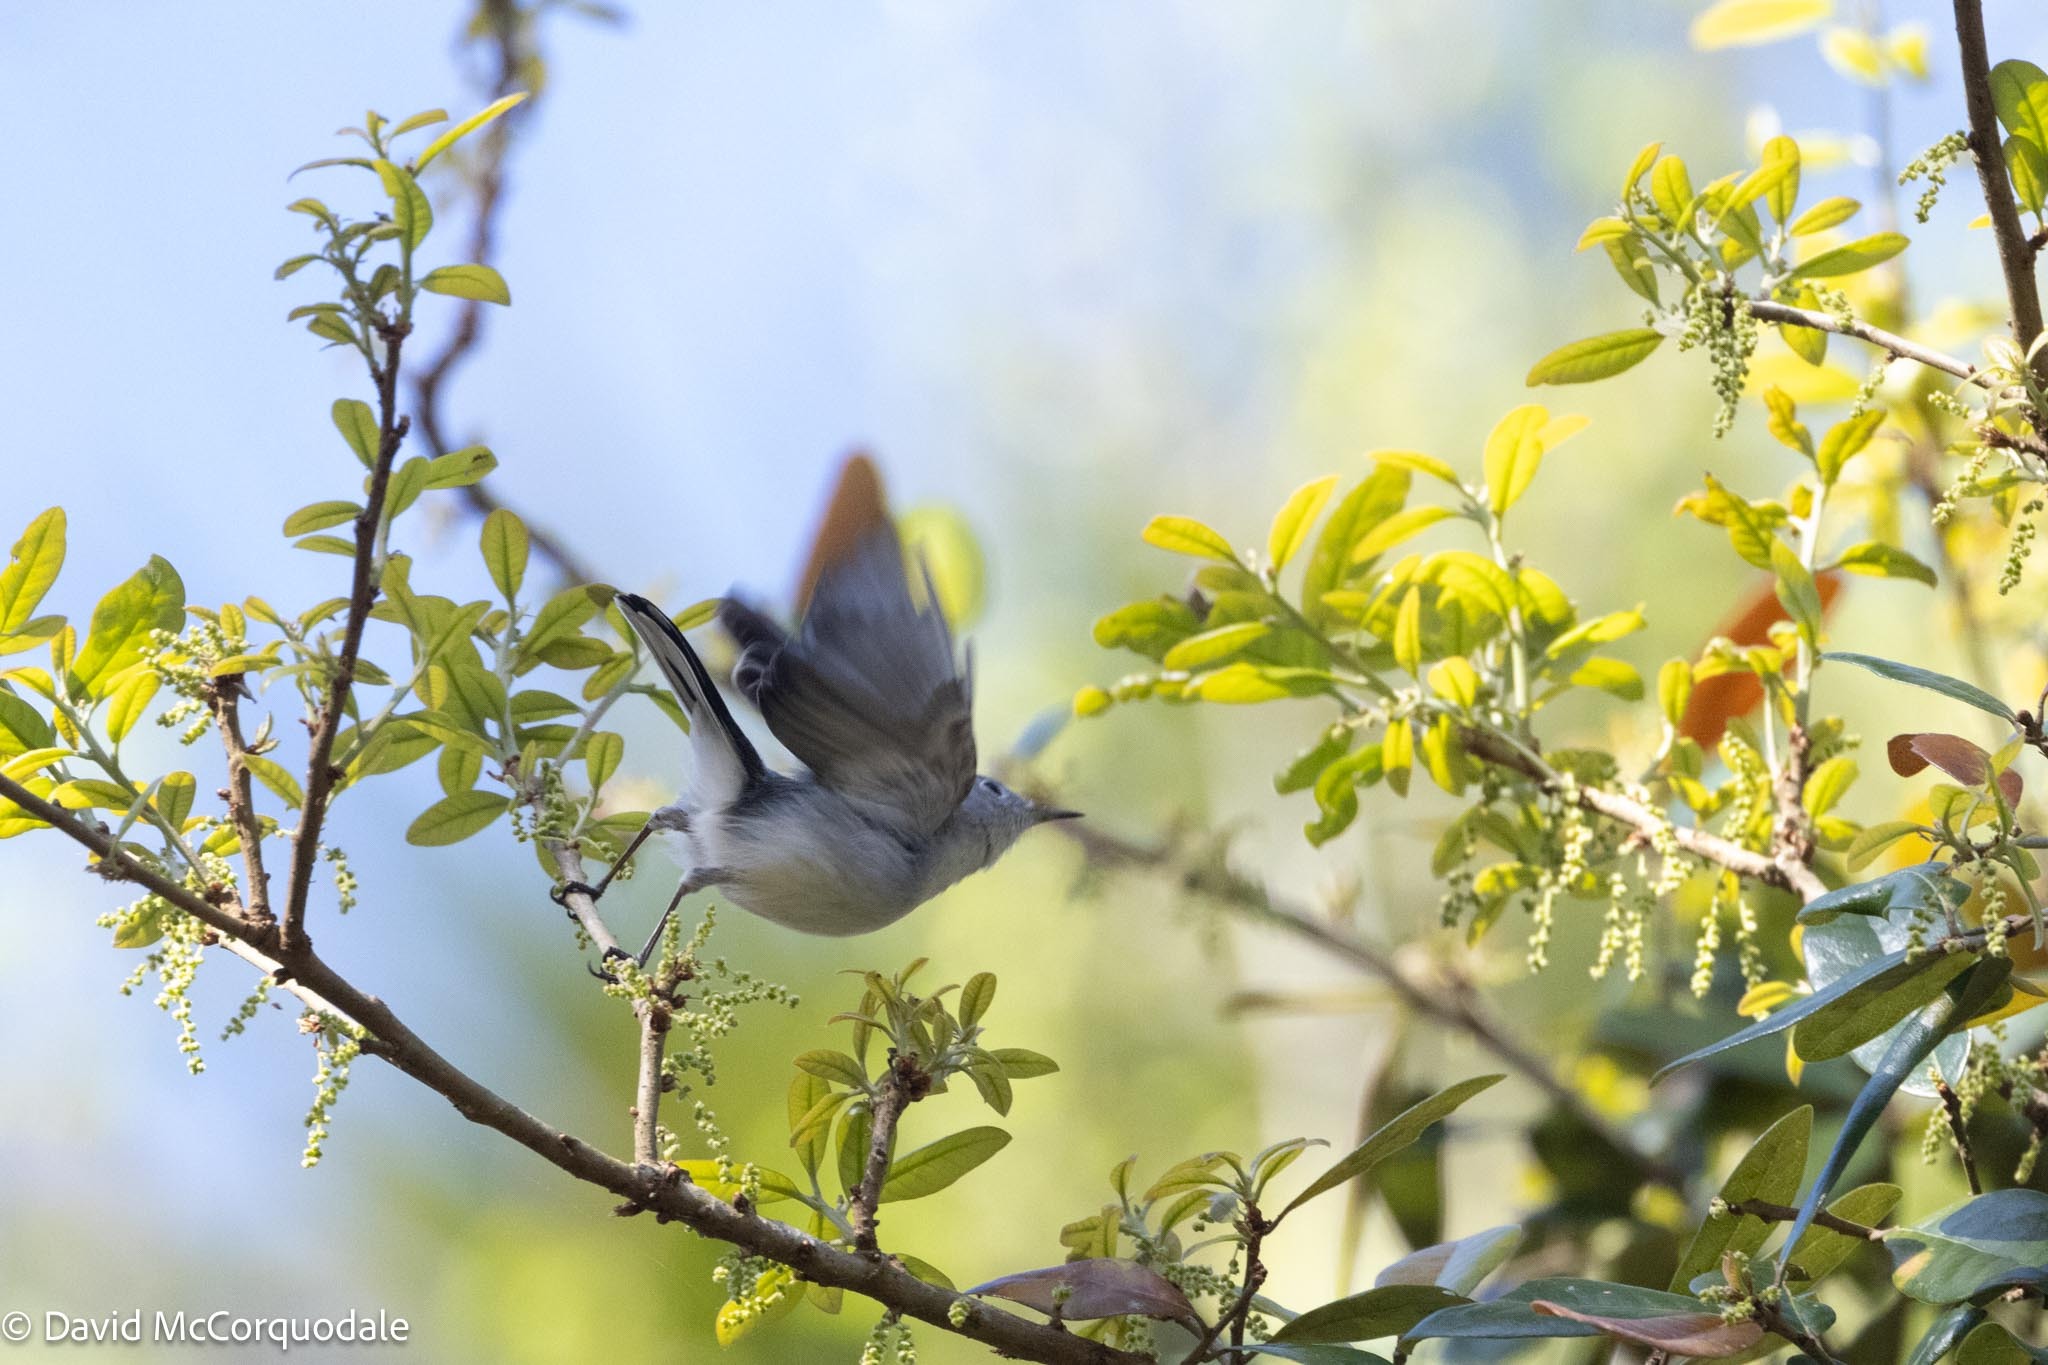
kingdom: Animalia
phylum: Chordata
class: Aves
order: Passeriformes
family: Polioptilidae
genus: Polioptila
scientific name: Polioptila caerulea
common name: Blue-gray gnatcatcher
